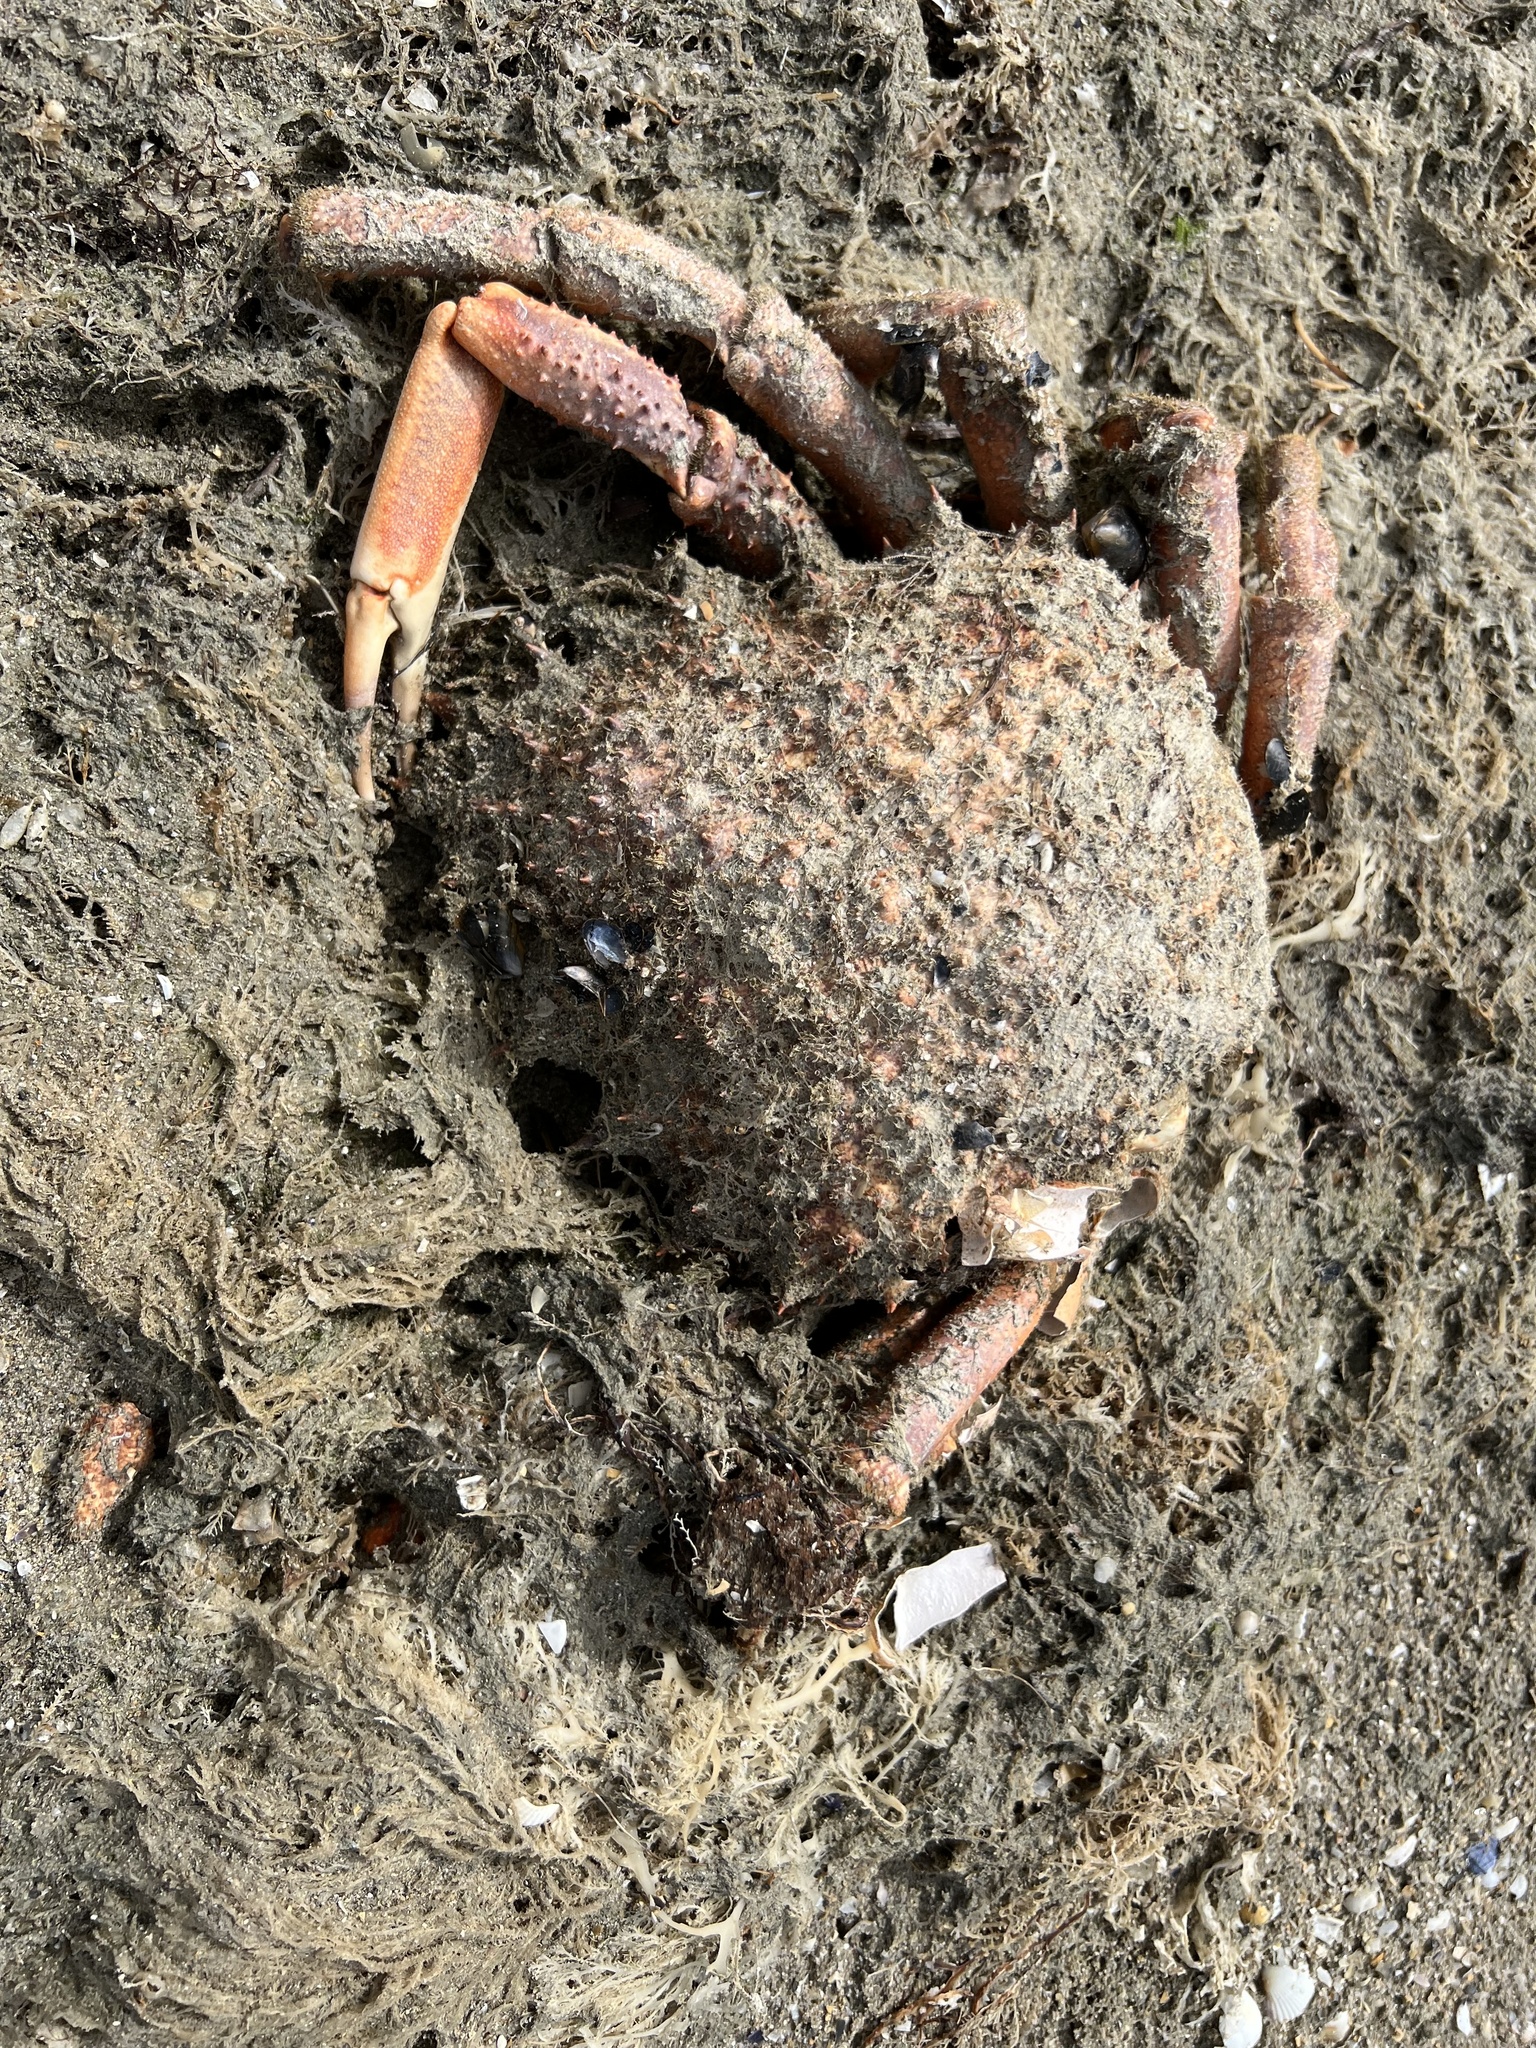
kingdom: Animalia
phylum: Arthropoda
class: Malacostraca
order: Decapoda
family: Majidae
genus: Maja
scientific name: Maja brachydactyla
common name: Common spider crab
